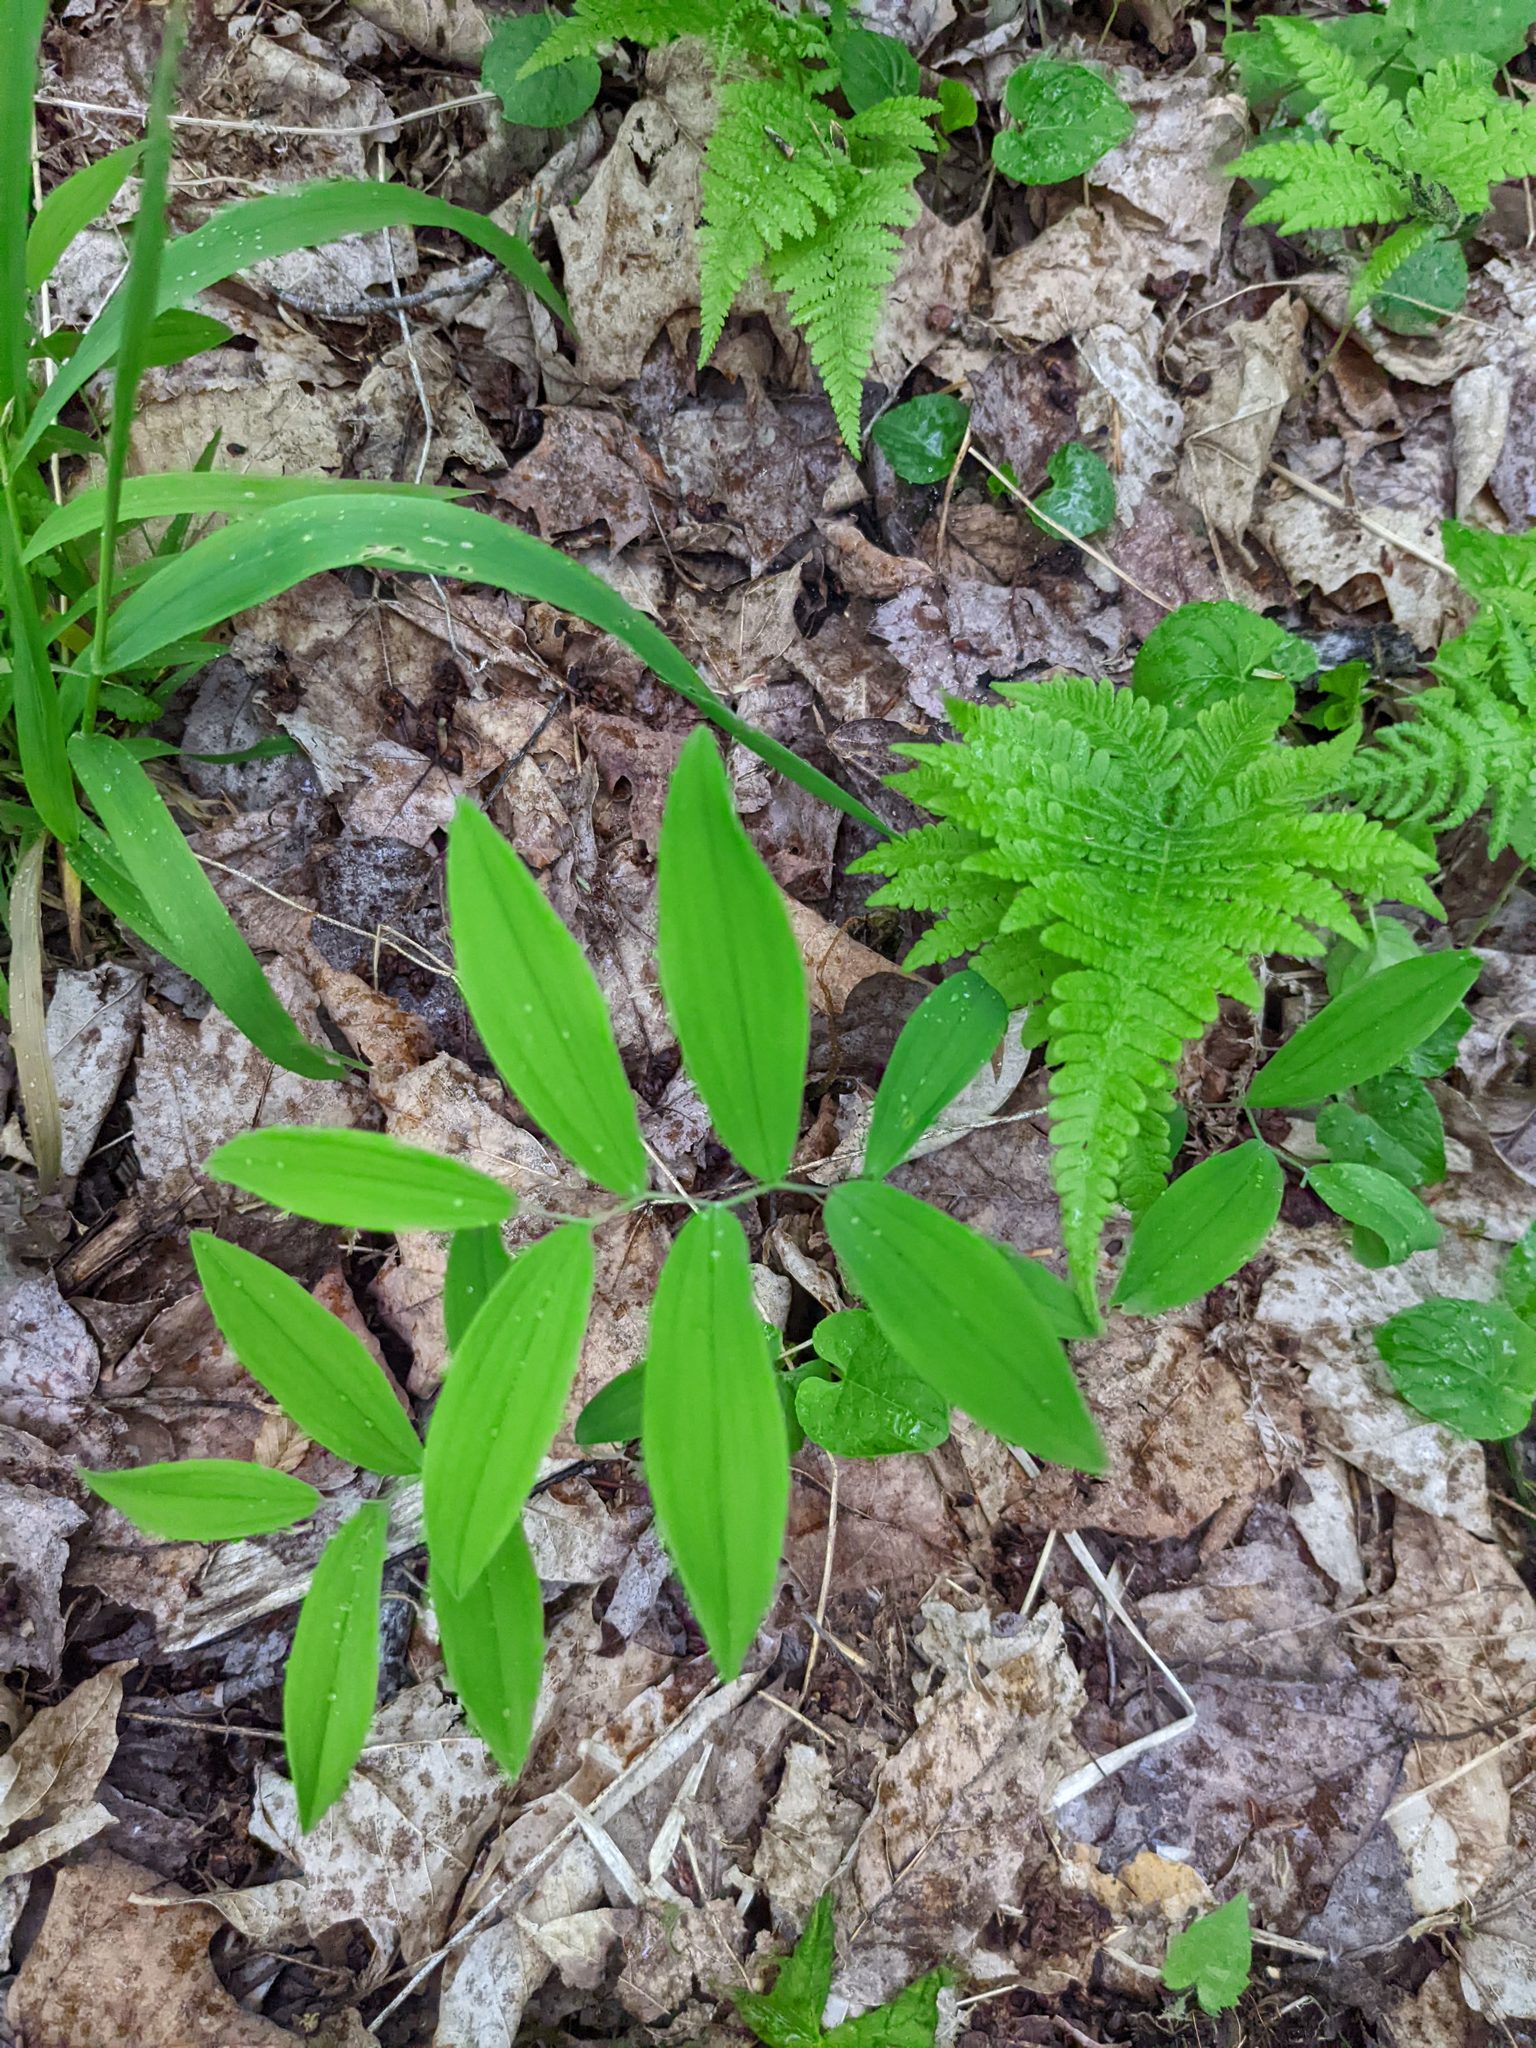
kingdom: Plantae
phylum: Tracheophyta
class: Liliopsida
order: Liliales
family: Colchicaceae
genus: Uvularia
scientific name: Uvularia sessilifolia
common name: Straw-lily
